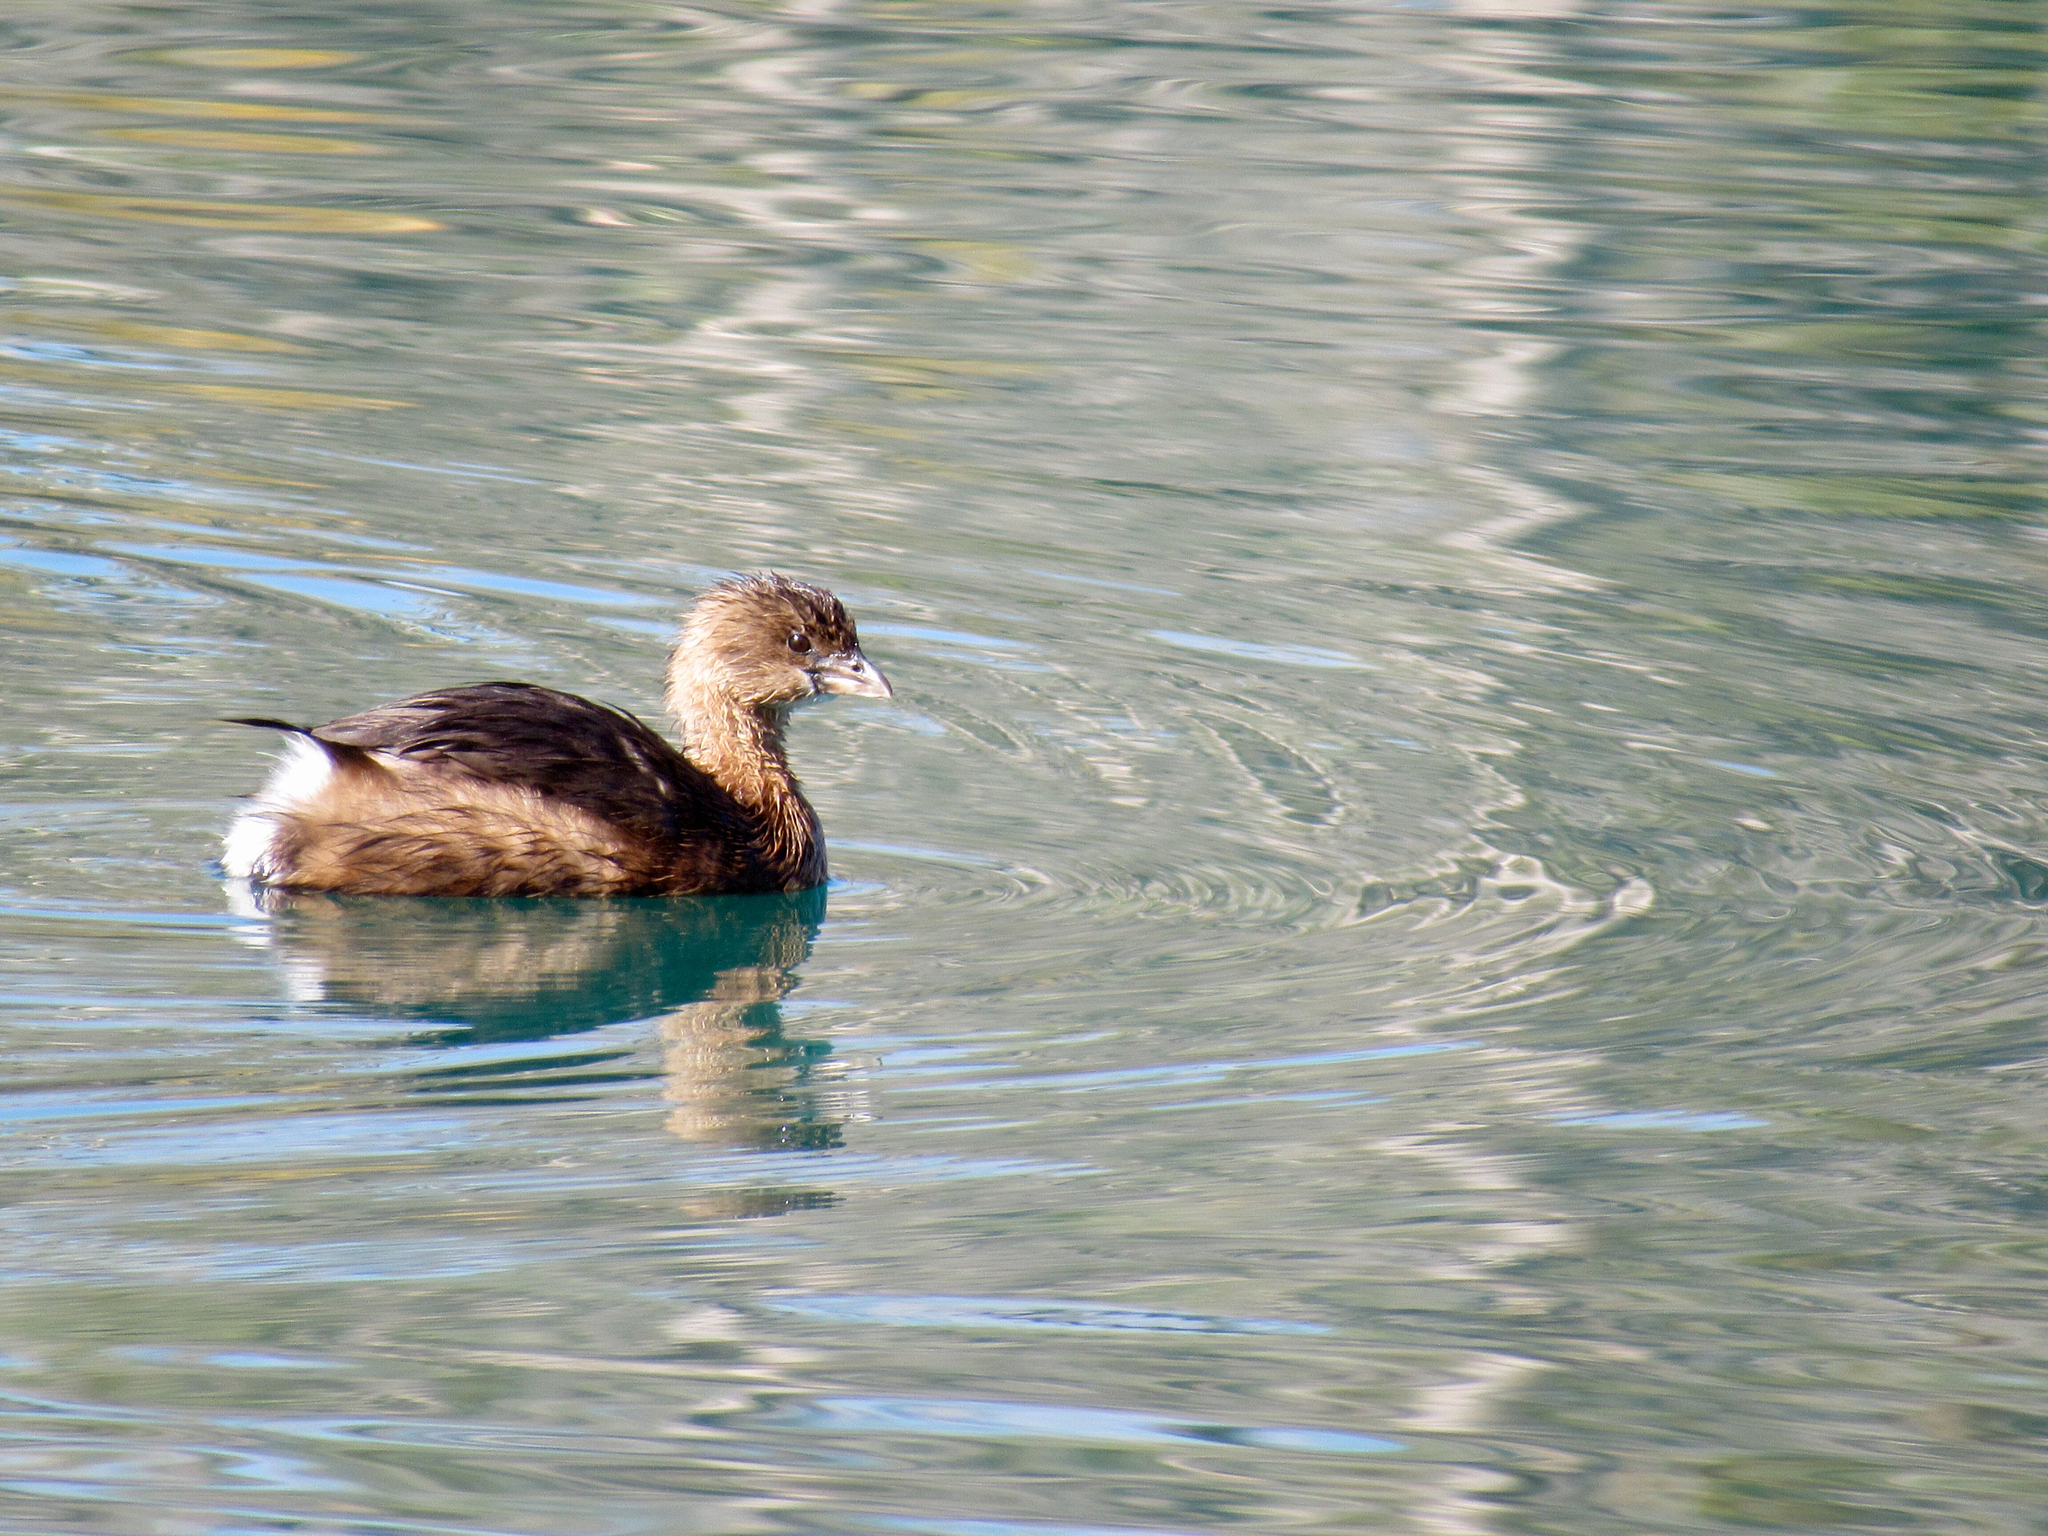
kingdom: Animalia
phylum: Chordata
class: Aves
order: Podicipediformes
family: Podicipedidae
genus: Podilymbus
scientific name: Podilymbus podiceps
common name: Pied-billed grebe
